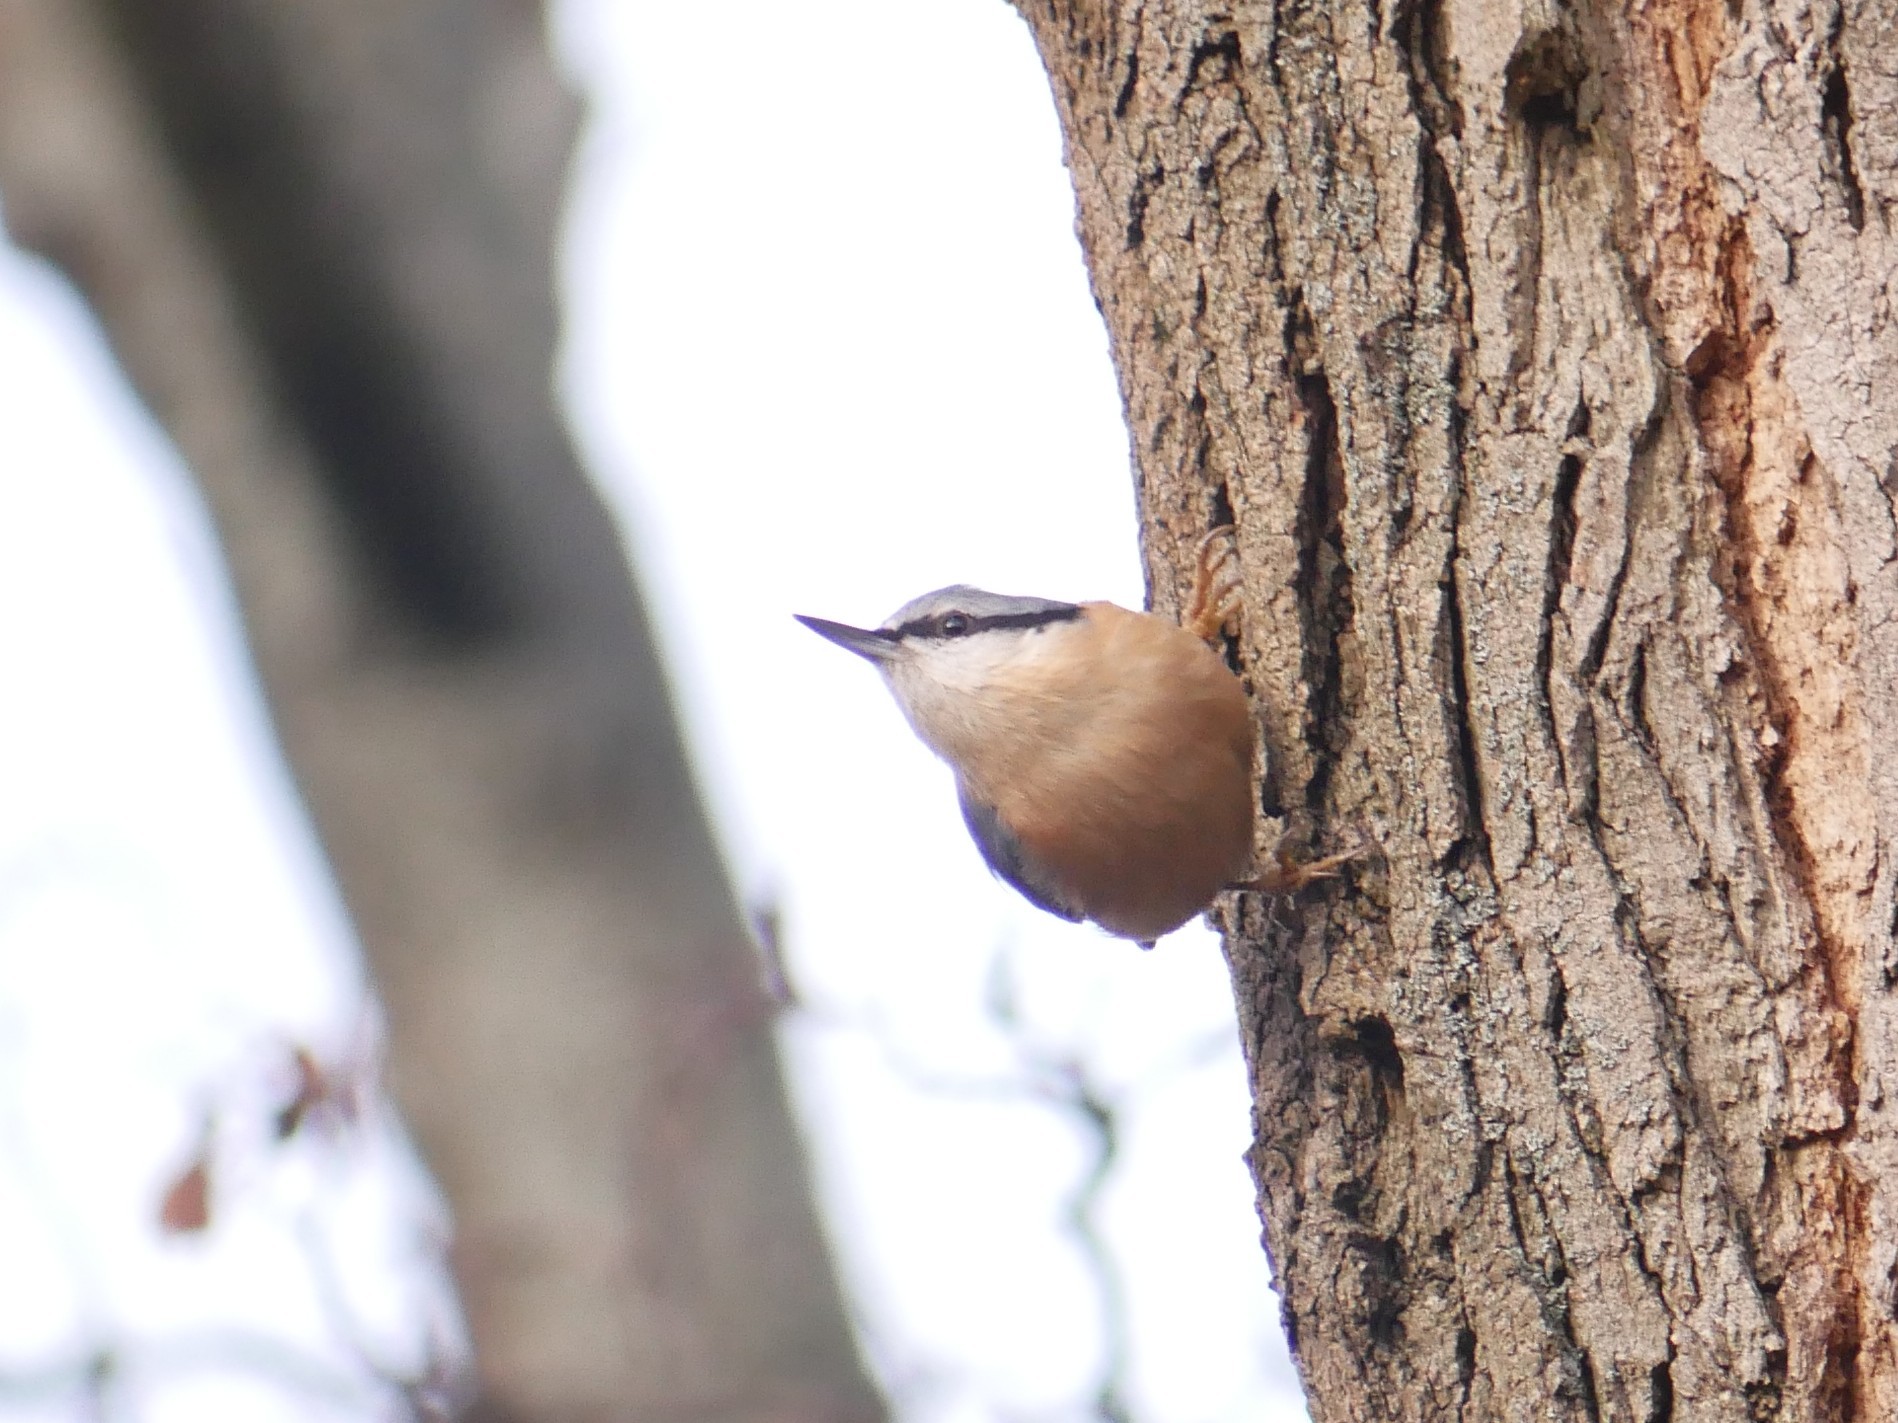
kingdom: Animalia
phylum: Chordata
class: Aves
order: Passeriformes
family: Sittidae
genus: Sitta
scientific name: Sitta europaea
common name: Eurasian nuthatch
